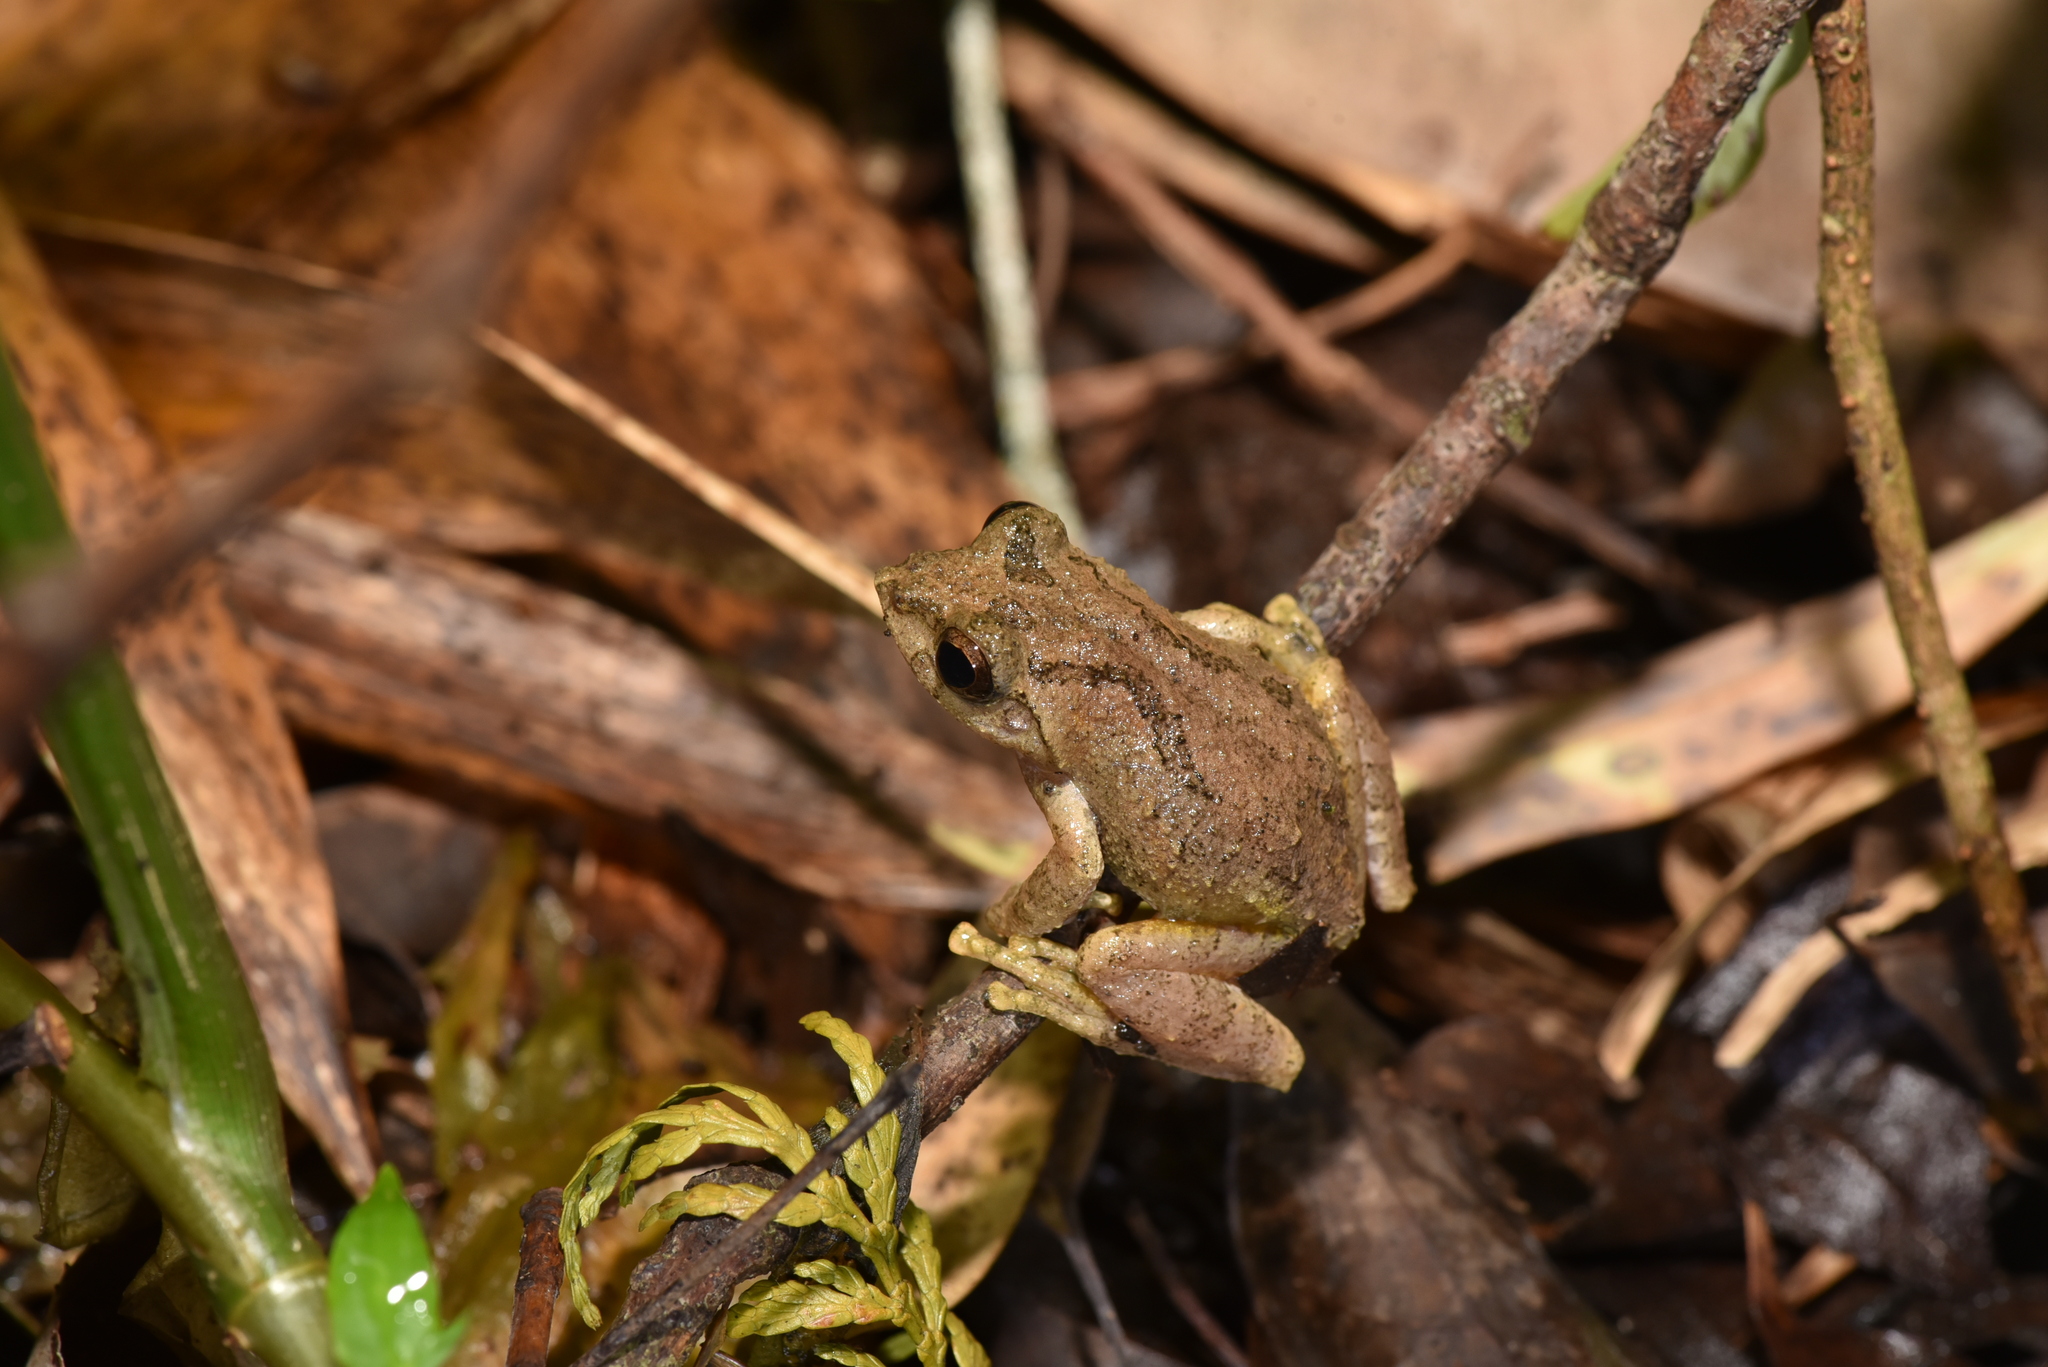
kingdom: Animalia
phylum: Chordata
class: Amphibia
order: Anura
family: Rhacophoridae
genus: Kurixalus
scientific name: Kurixalus idiootocus
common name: Temple treefrog
